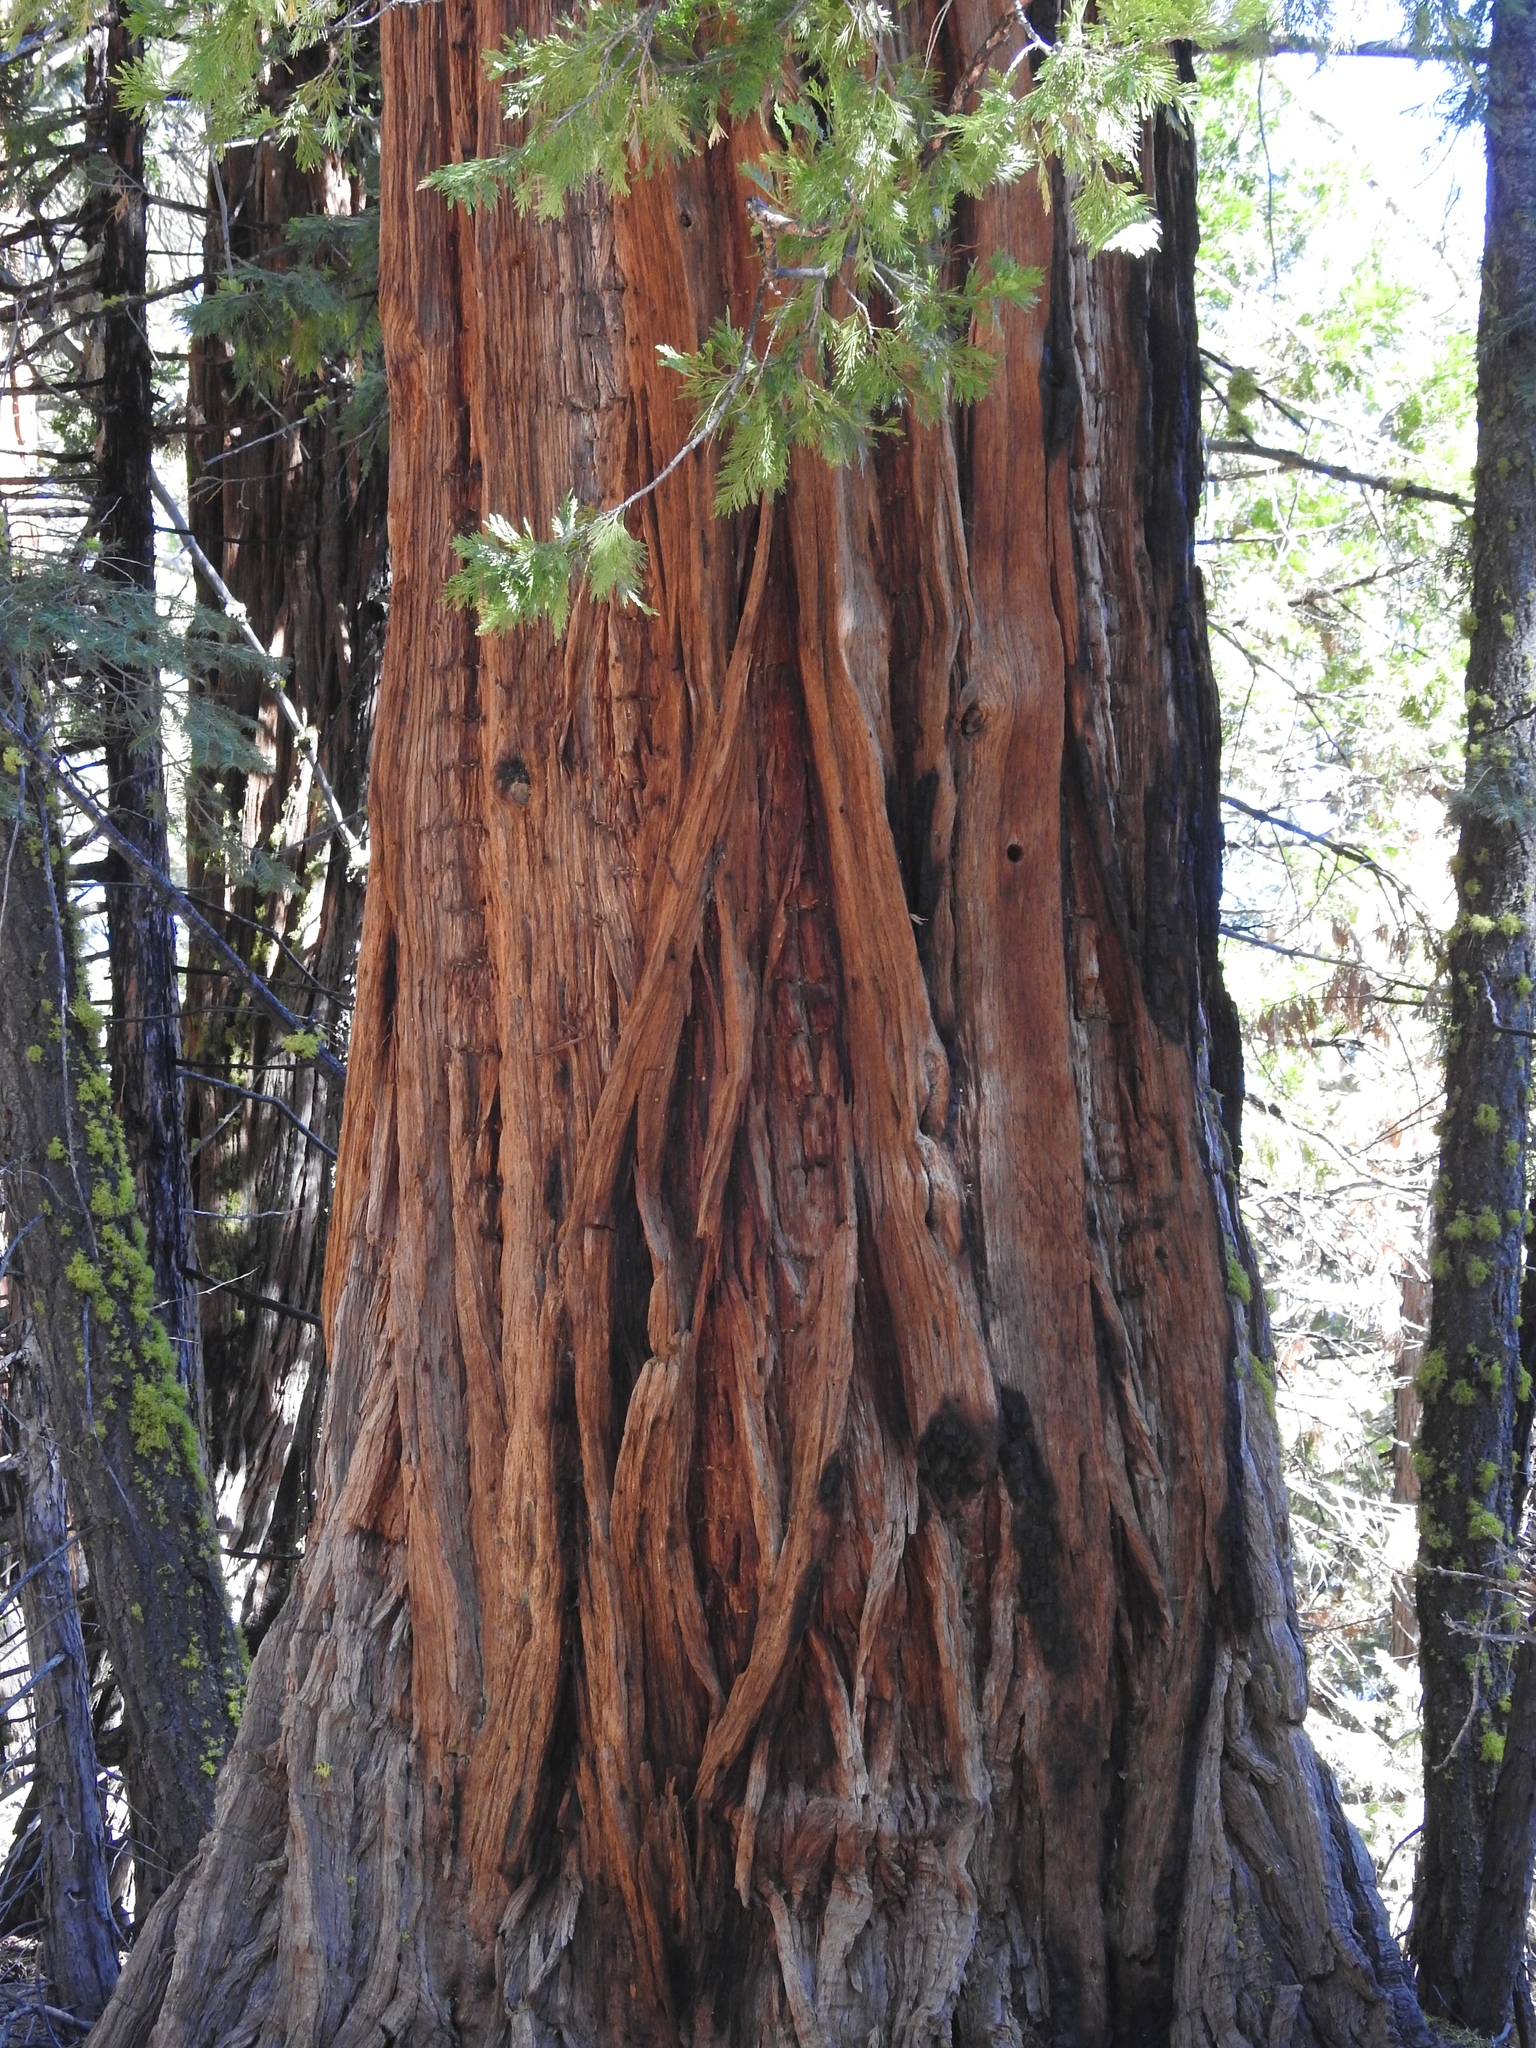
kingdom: Plantae
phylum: Tracheophyta
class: Pinopsida
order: Pinales
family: Cupressaceae
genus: Calocedrus
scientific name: Calocedrus decurrens
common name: Californian incense-cedar
